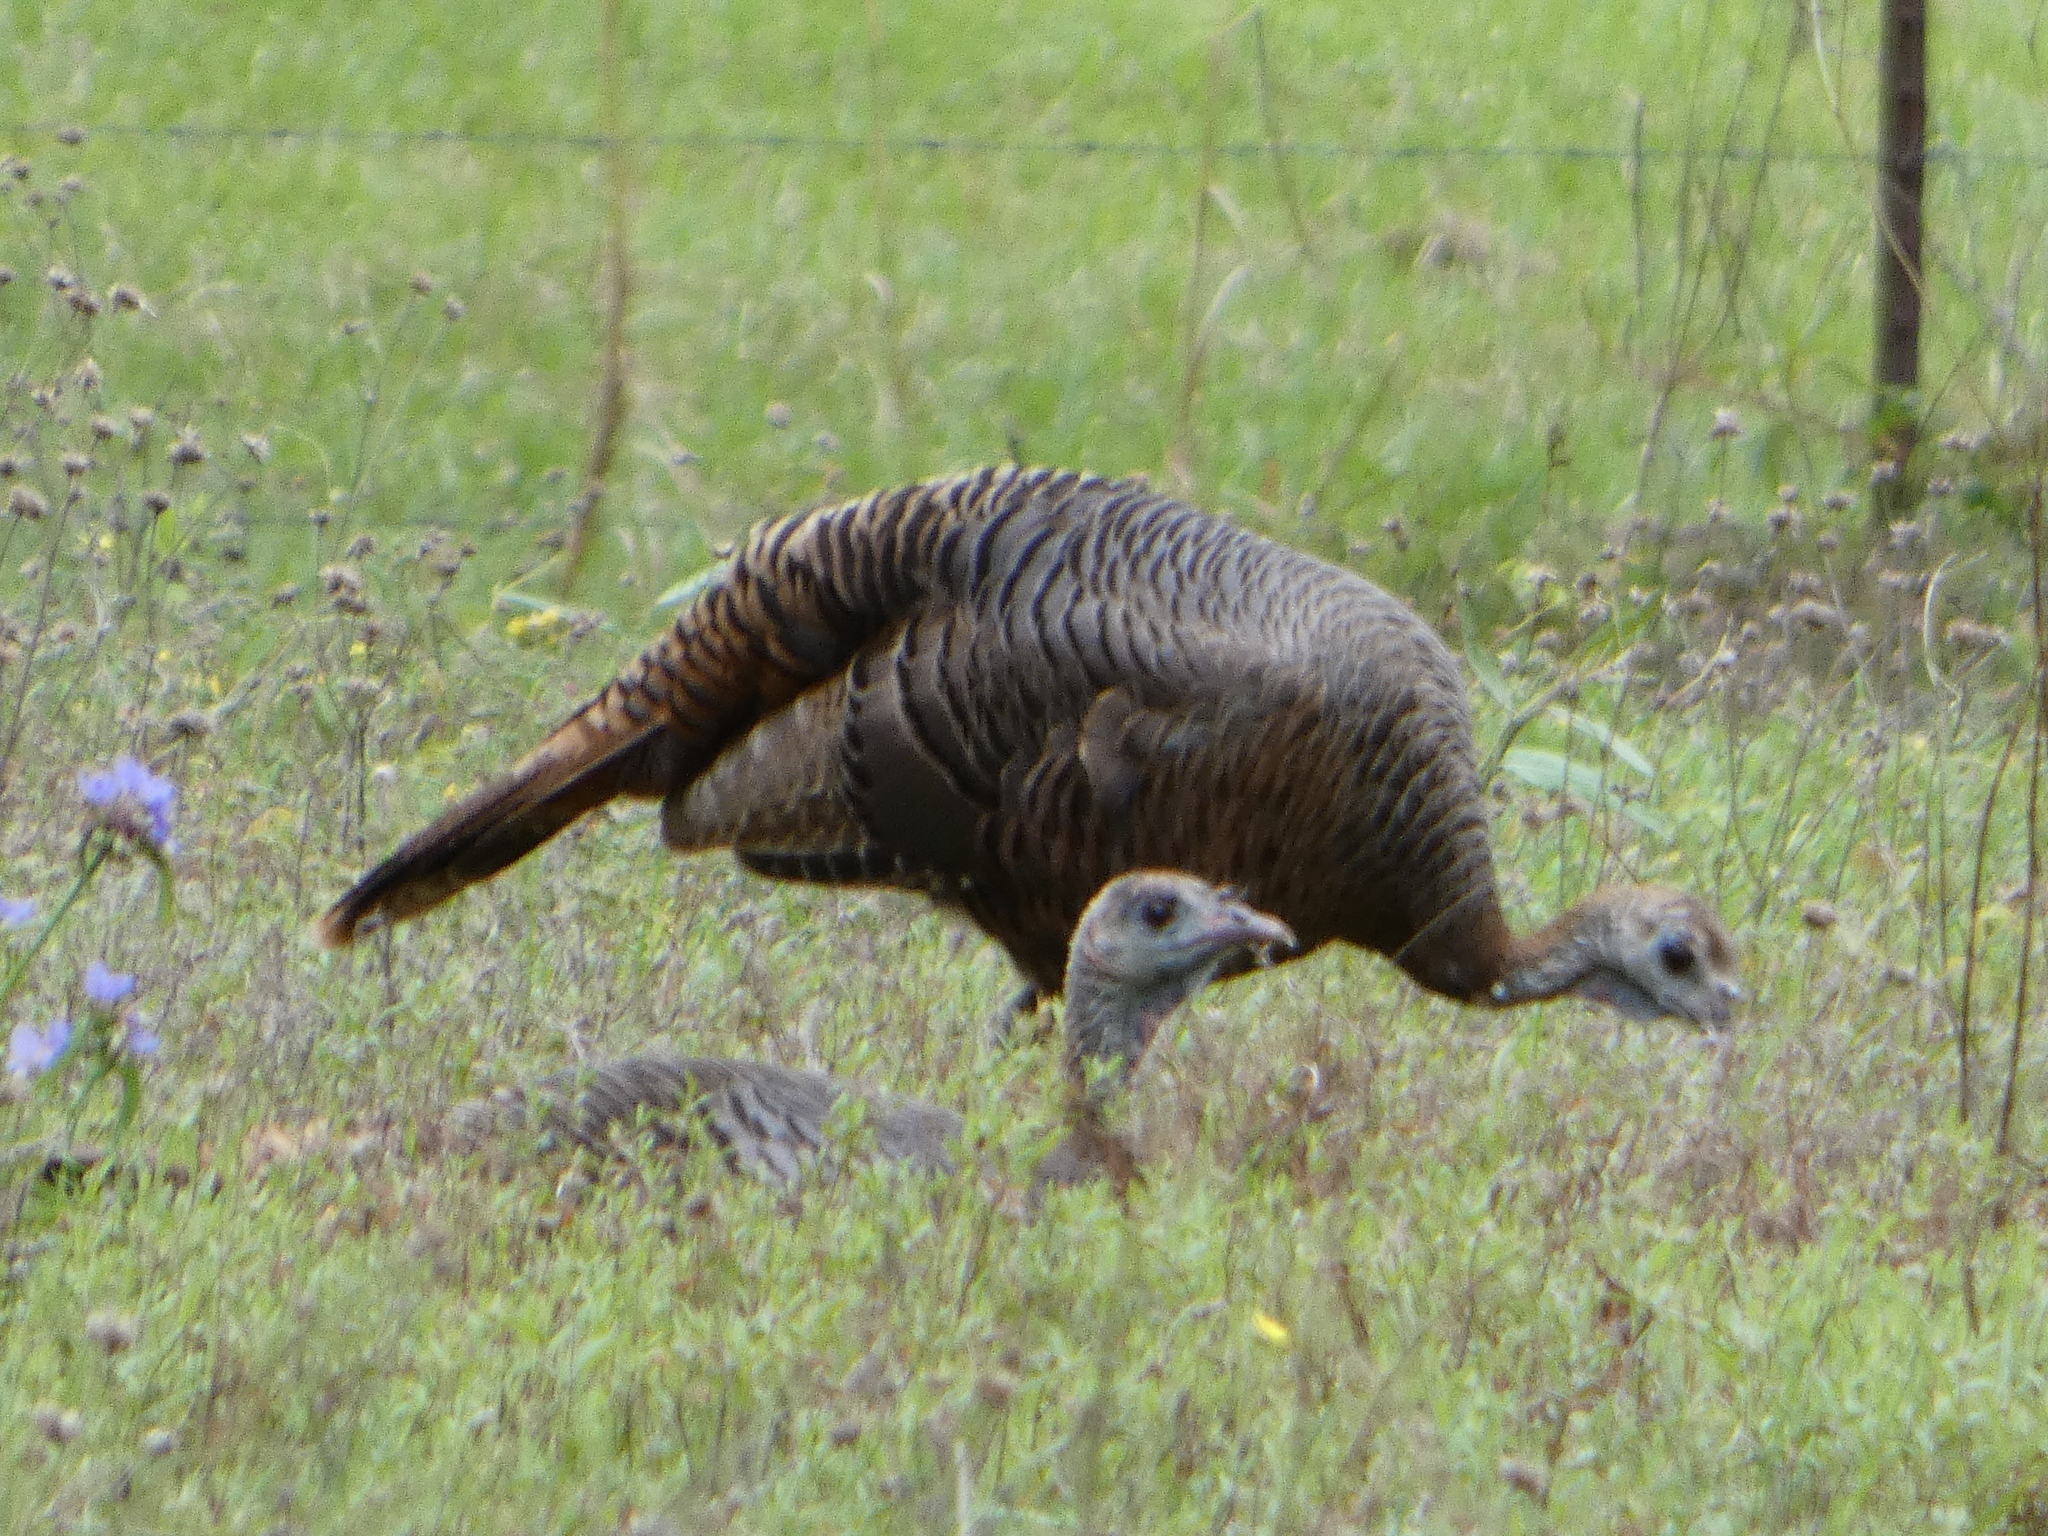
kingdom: Animalia
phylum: Chordata
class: Aves
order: Galliformes
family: Phasianidae
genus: Meleagris
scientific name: Meleagris gallopavo
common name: Wild turkey
